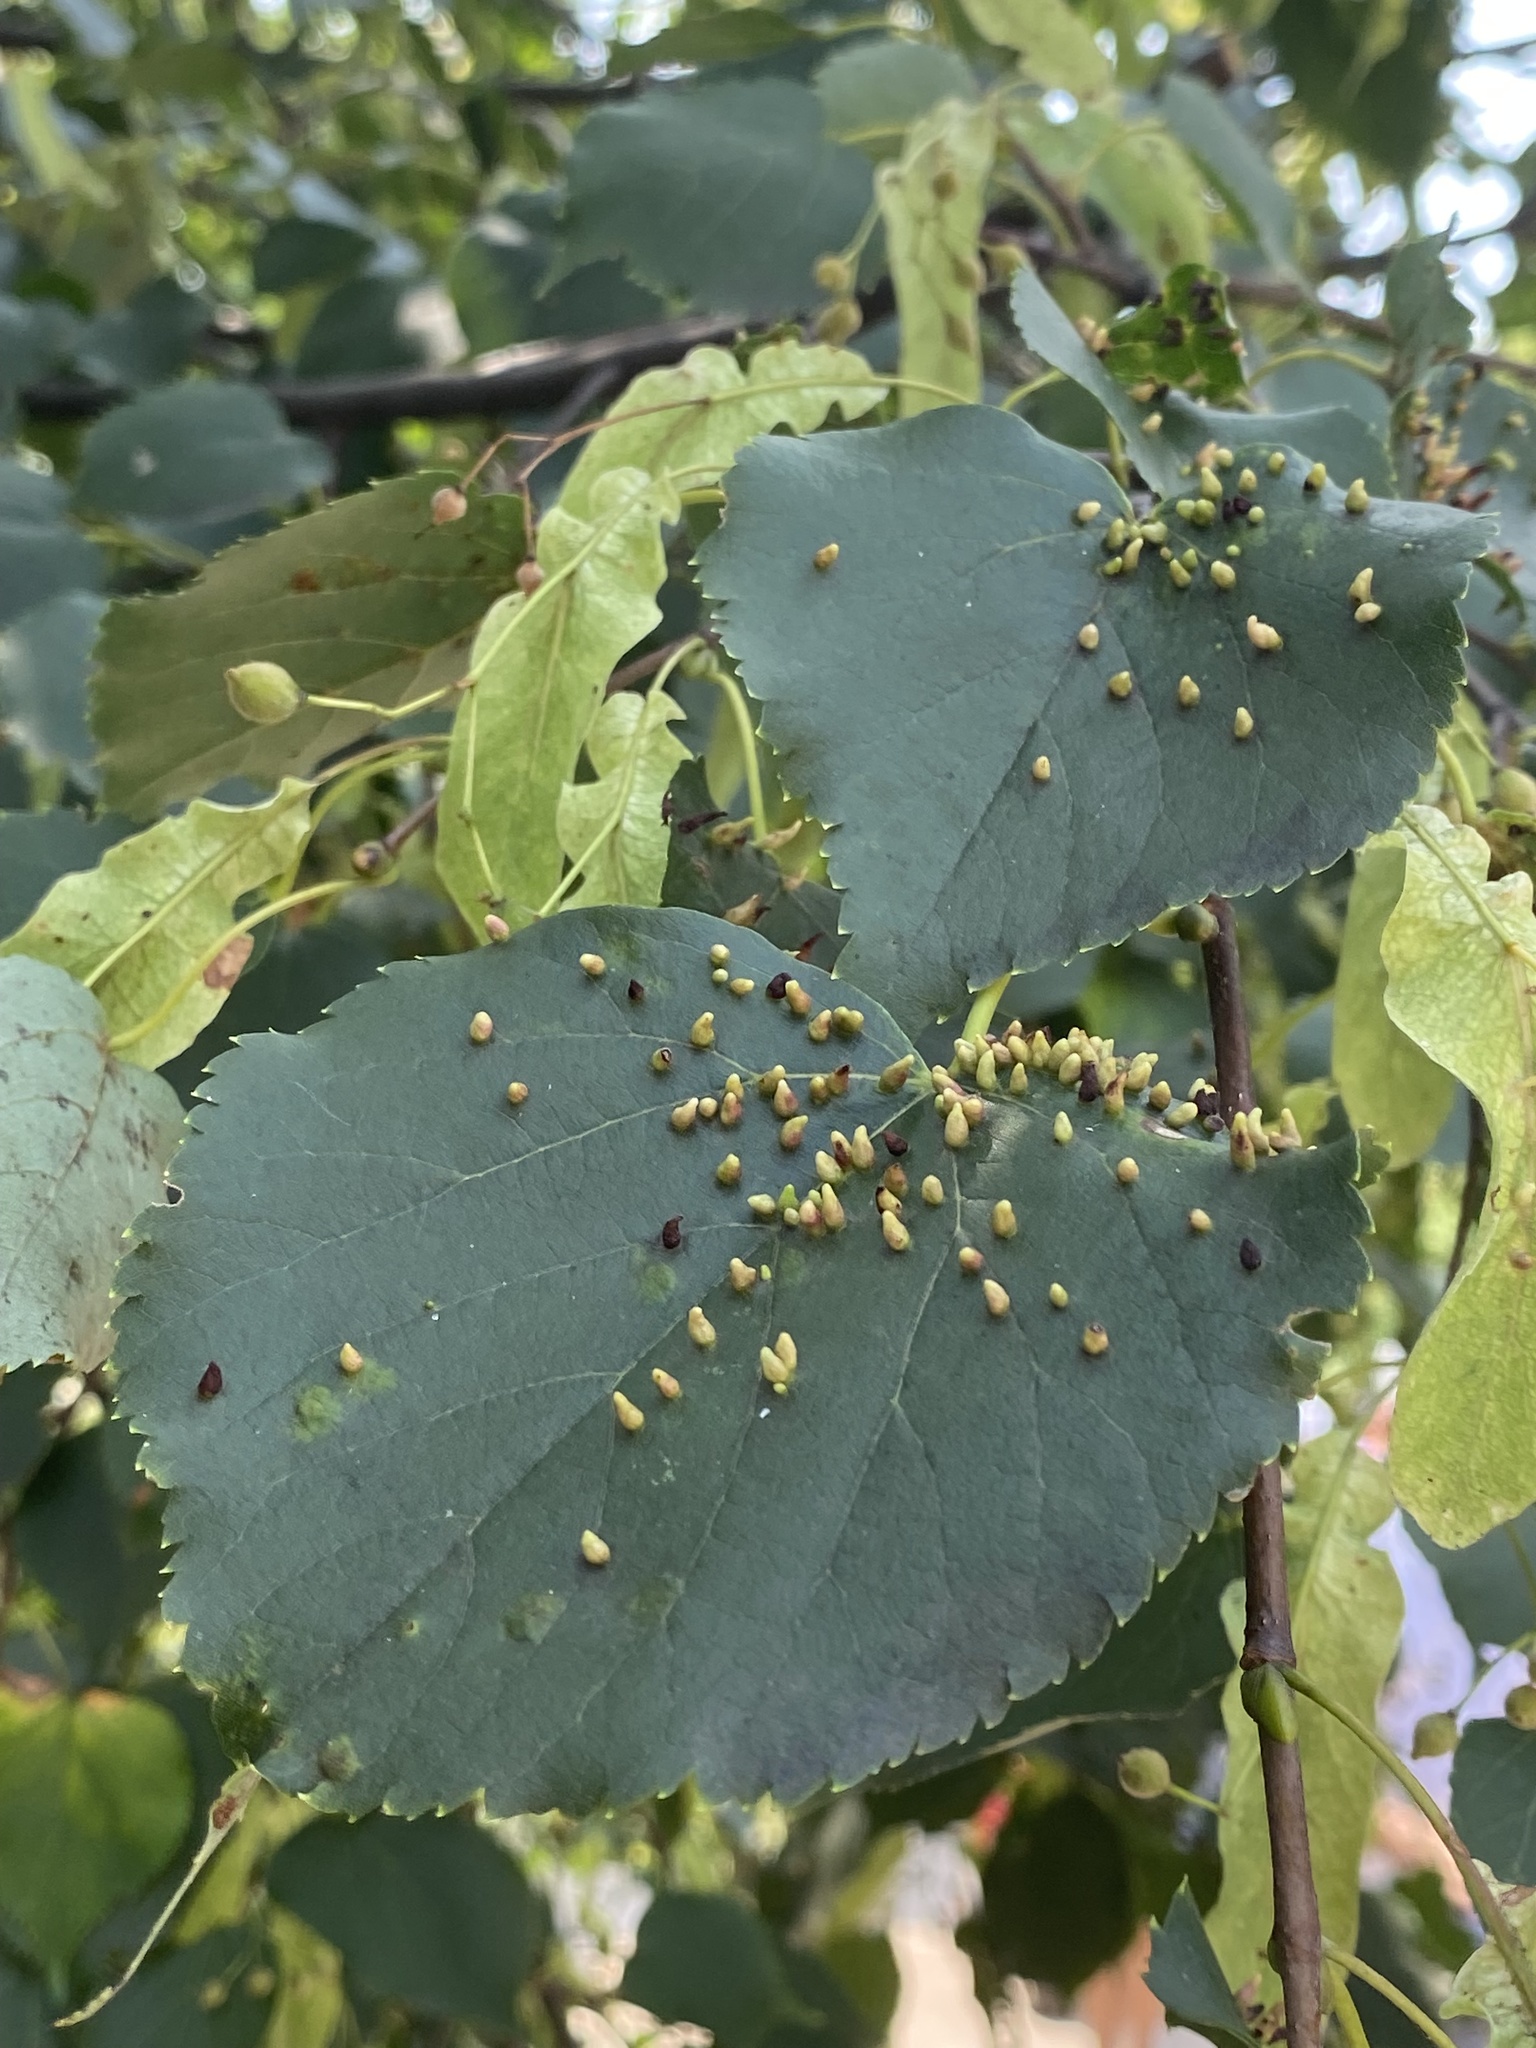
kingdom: Animalia
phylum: Arthropoda
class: Arachnida
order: Trombidiformes
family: Eriophyidae
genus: Eriophyes
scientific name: Eriophyes tiliae
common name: Red nail gall mite
